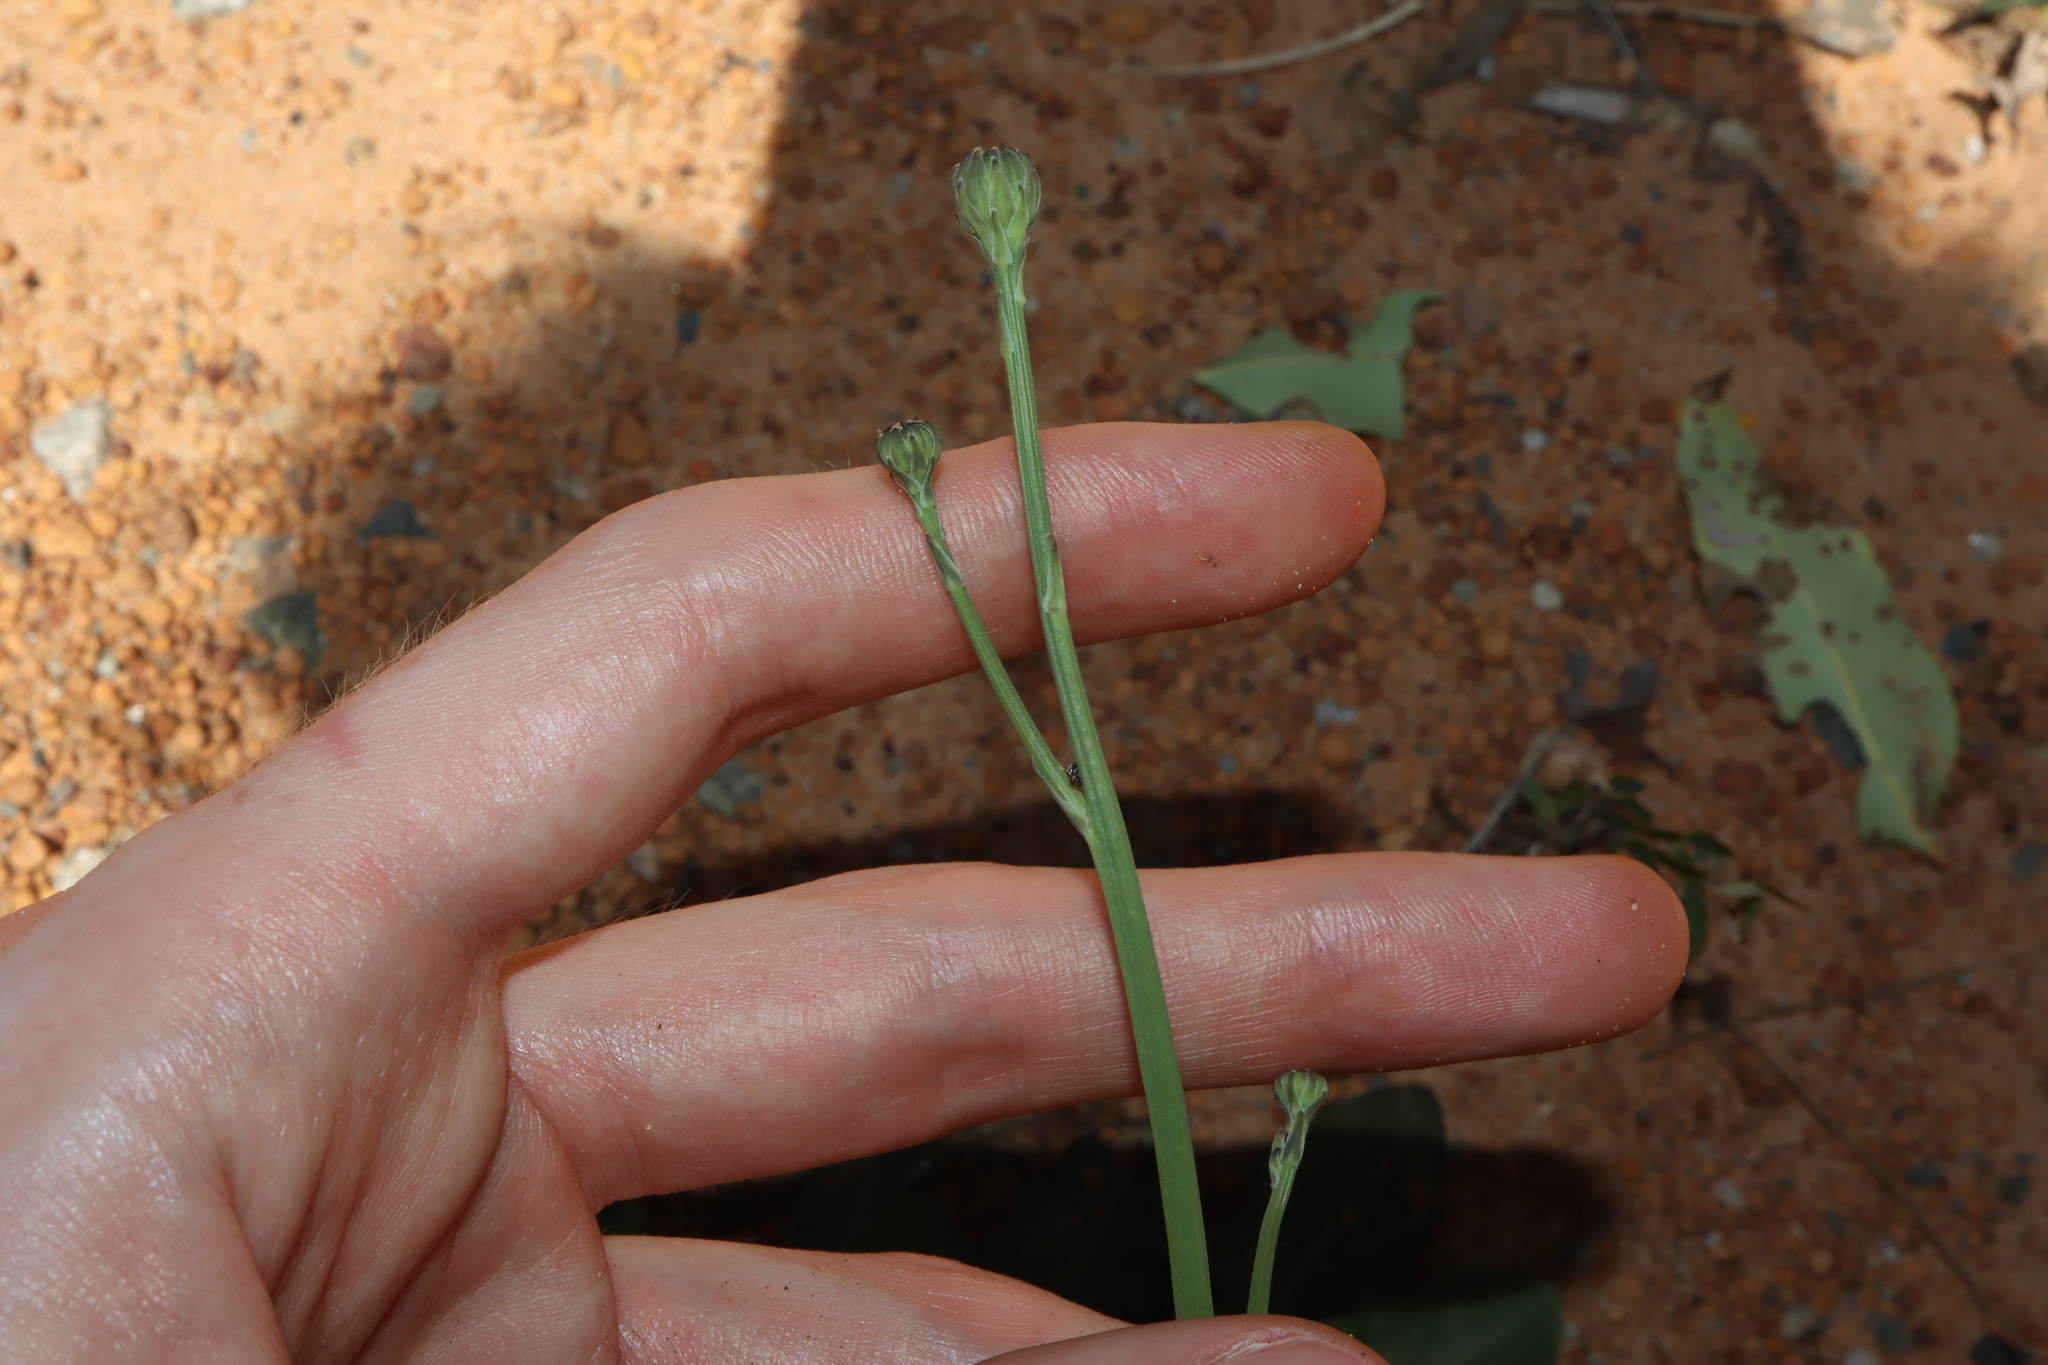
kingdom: Plantae
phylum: Tracheophyta
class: Magnoliopsida
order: Asterales
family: Asteraceae
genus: Hypochaeris
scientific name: Hypochaeris radicata
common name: Flatweed
